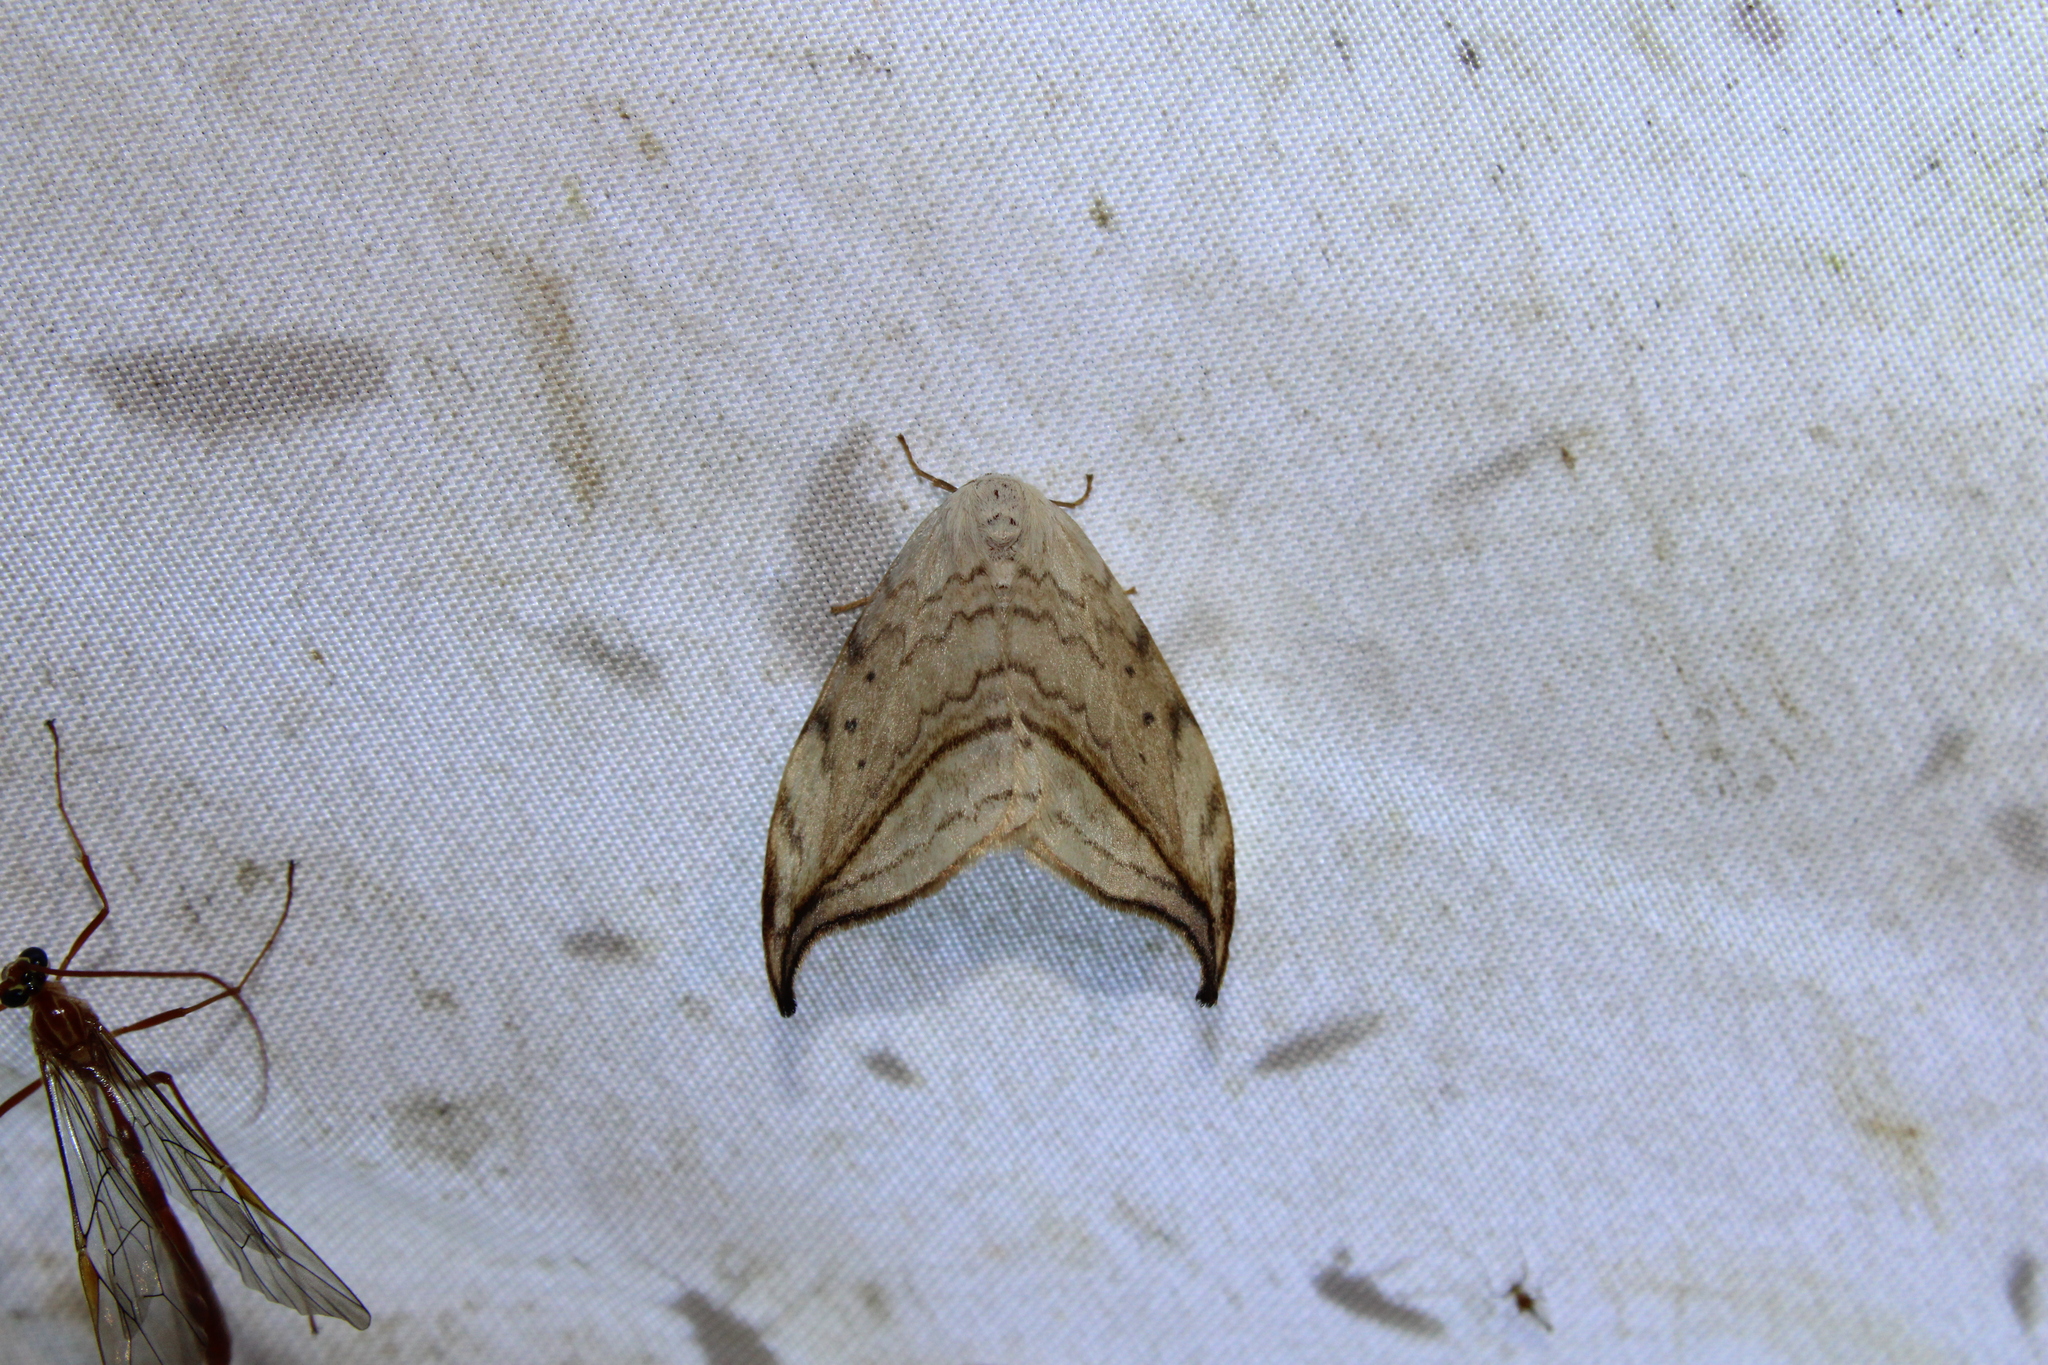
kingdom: Animalia
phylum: Arthropoda
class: Insecta
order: Lepidoptera
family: Drepanidae
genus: Drepana
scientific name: Drepana arcuata
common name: Arched hooktip moth
